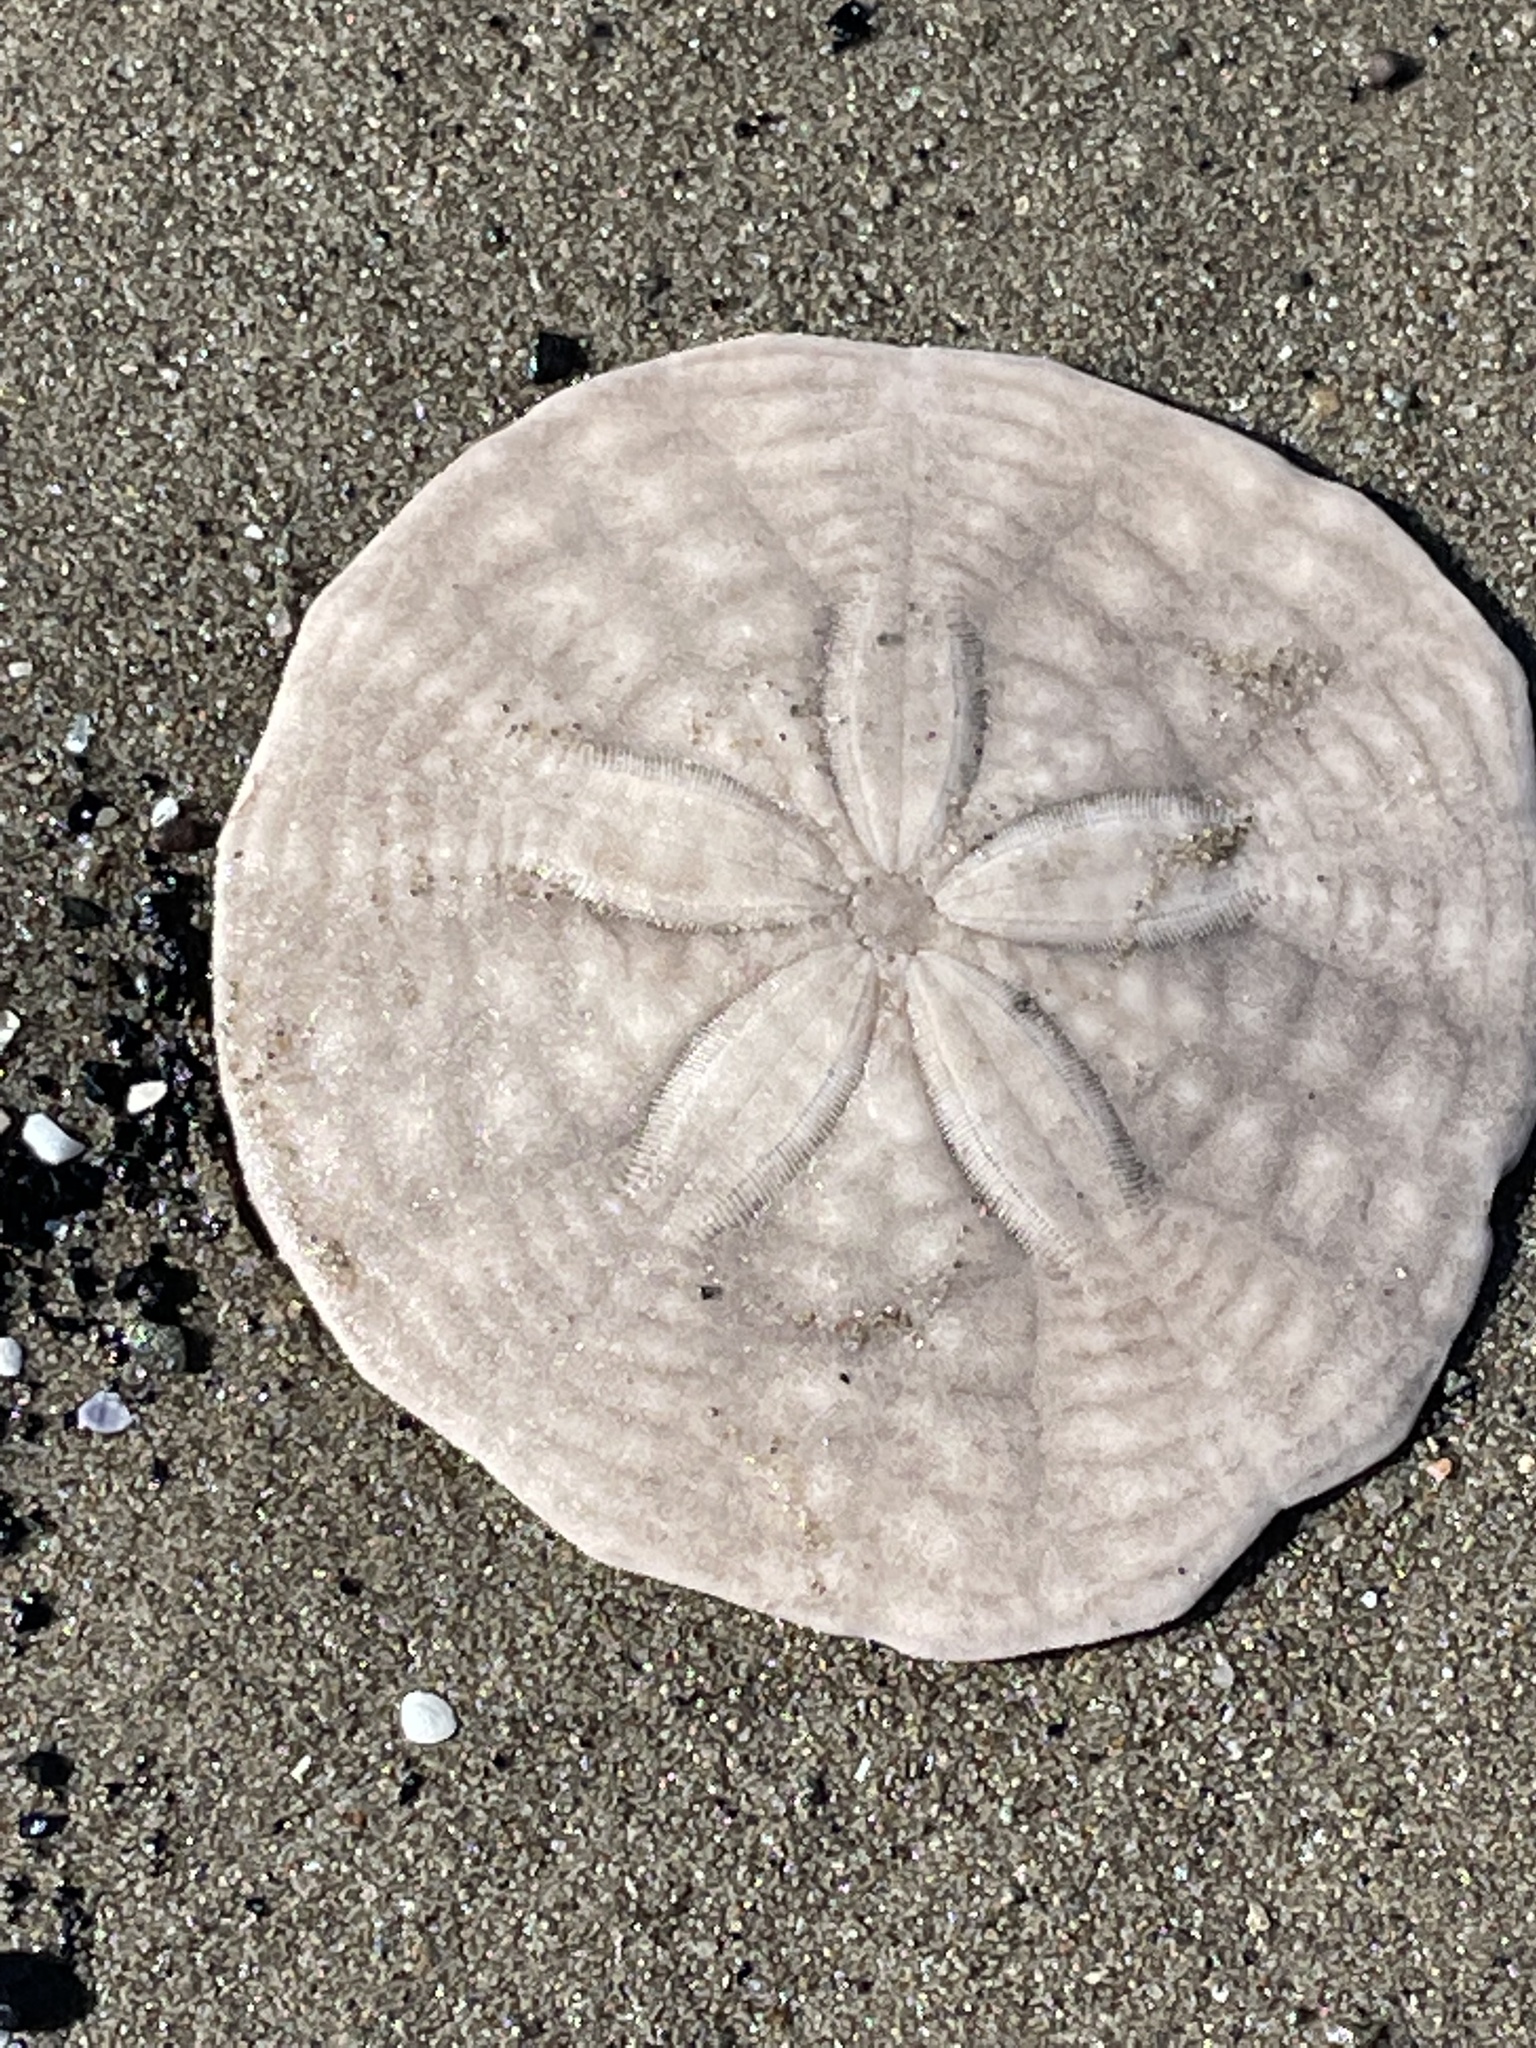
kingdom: Animalia
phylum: Echinodermata
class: Echinoidea
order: Echinolampadacea
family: Echinarachniidae
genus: Echinarachnius
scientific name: Echinarachnius parma
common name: Common sand dollar
